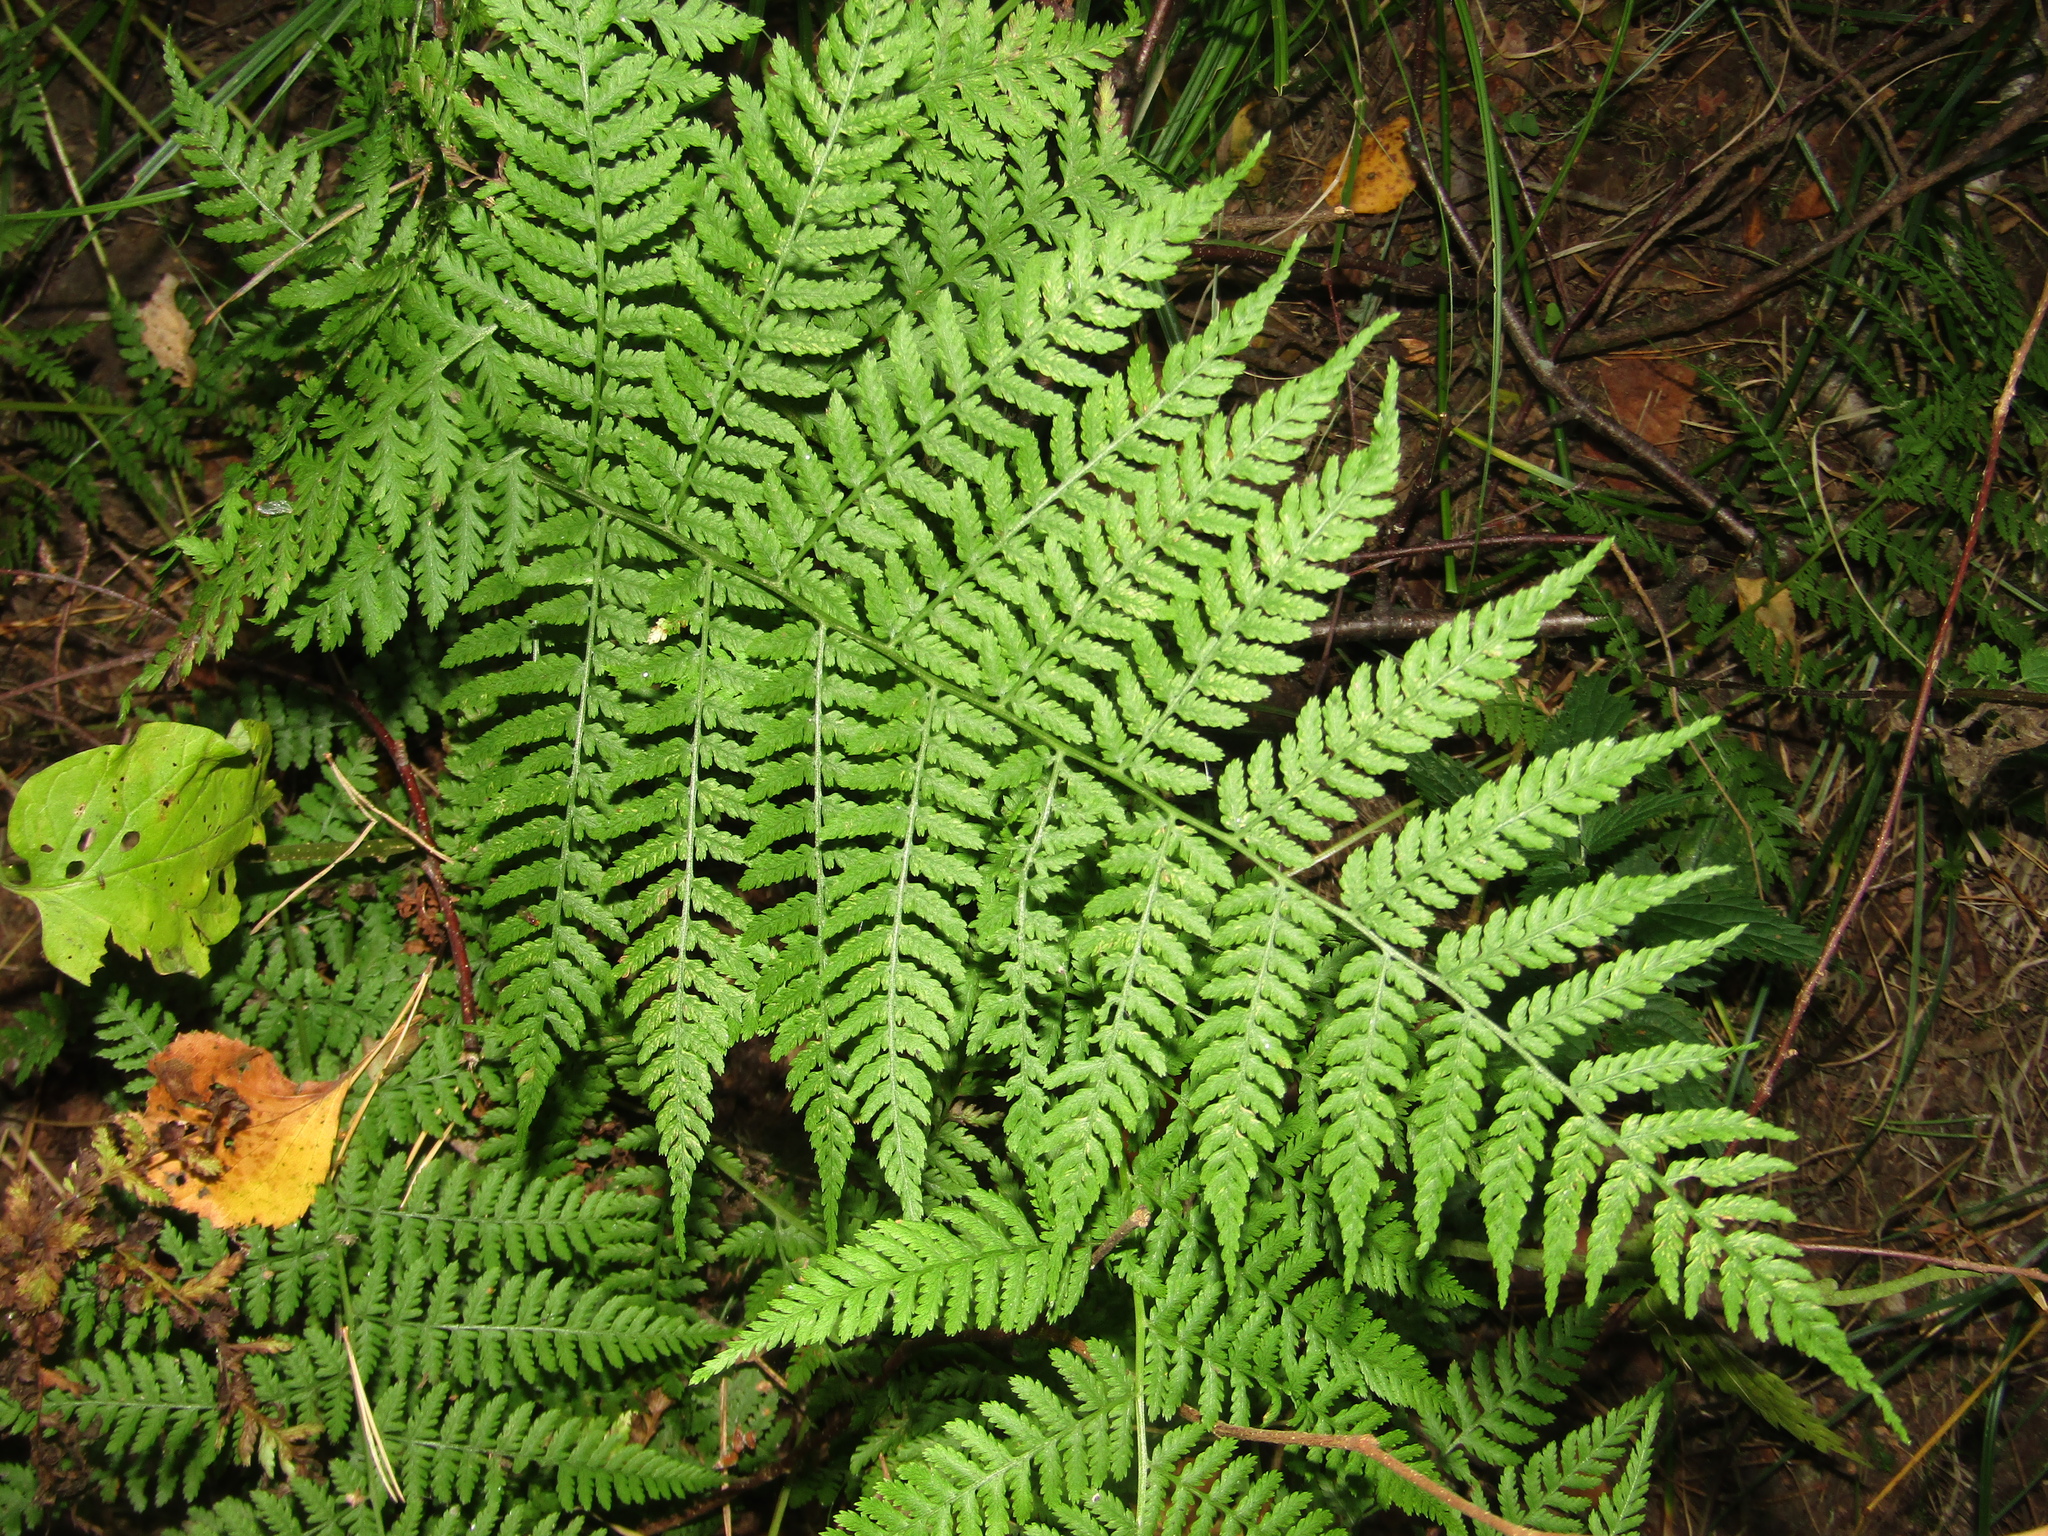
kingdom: Plantae
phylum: Tracheophyta
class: Polypodiopsida
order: Polypodiales
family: Athyriaceae
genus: Athyrium
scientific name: Athyrium filix-femina
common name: Lady fern
